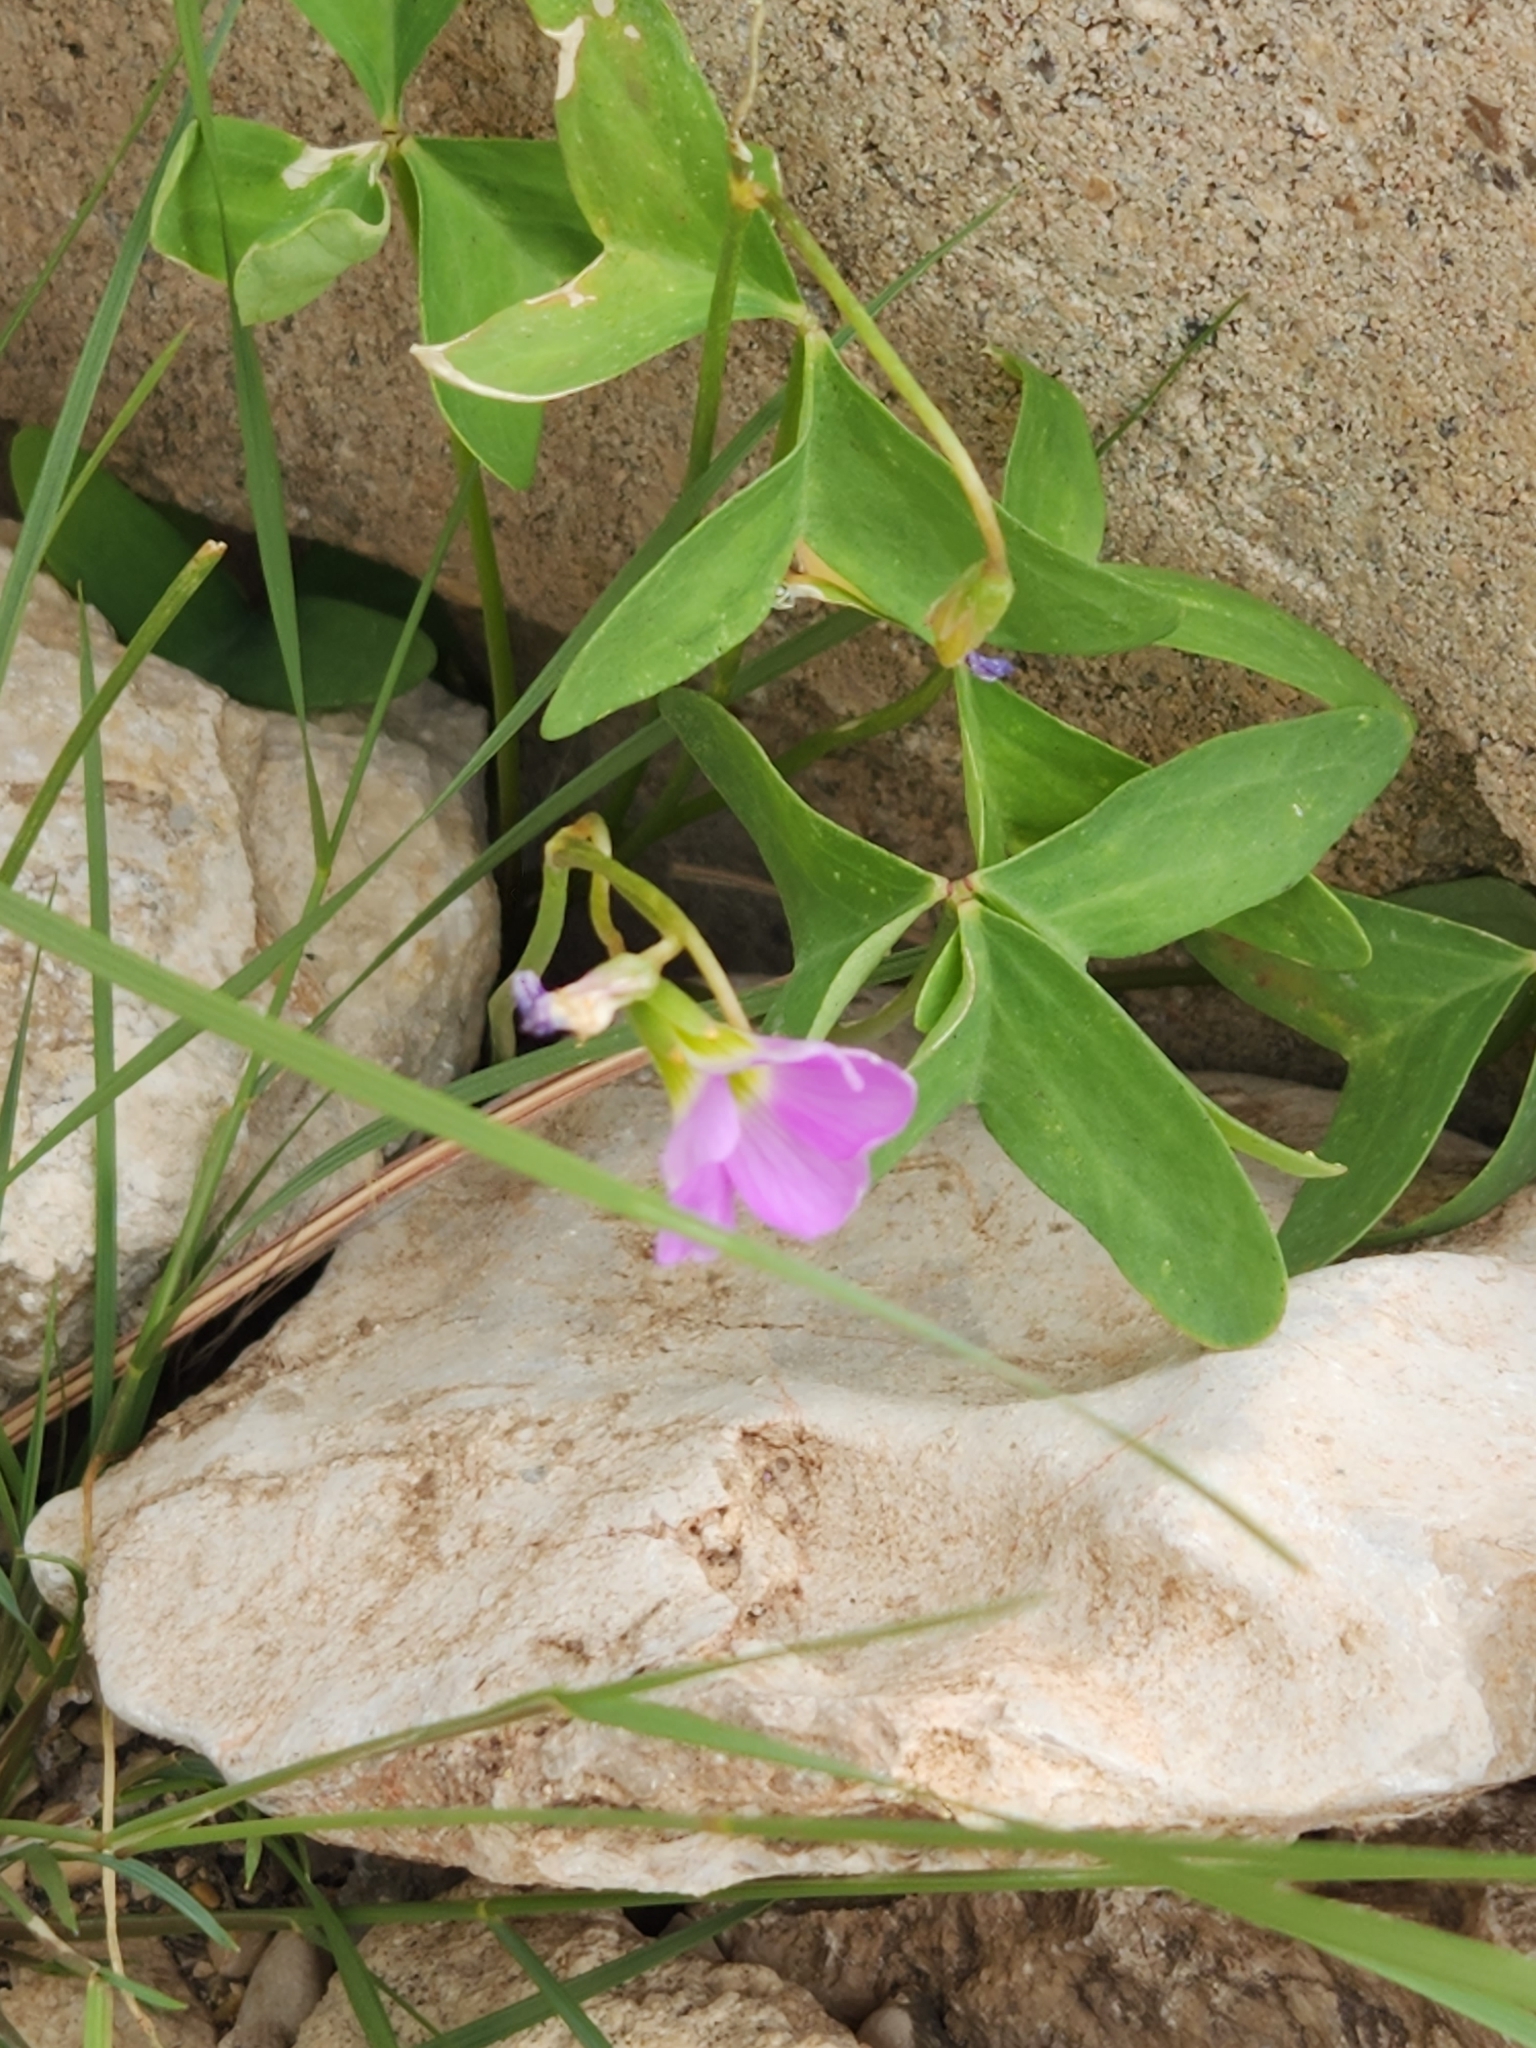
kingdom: Plantae
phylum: Tracheophyta
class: Magnoliopsida
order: Oxalidales
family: Oxalidaceae
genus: Oxalis
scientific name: Oxalis drummondii
